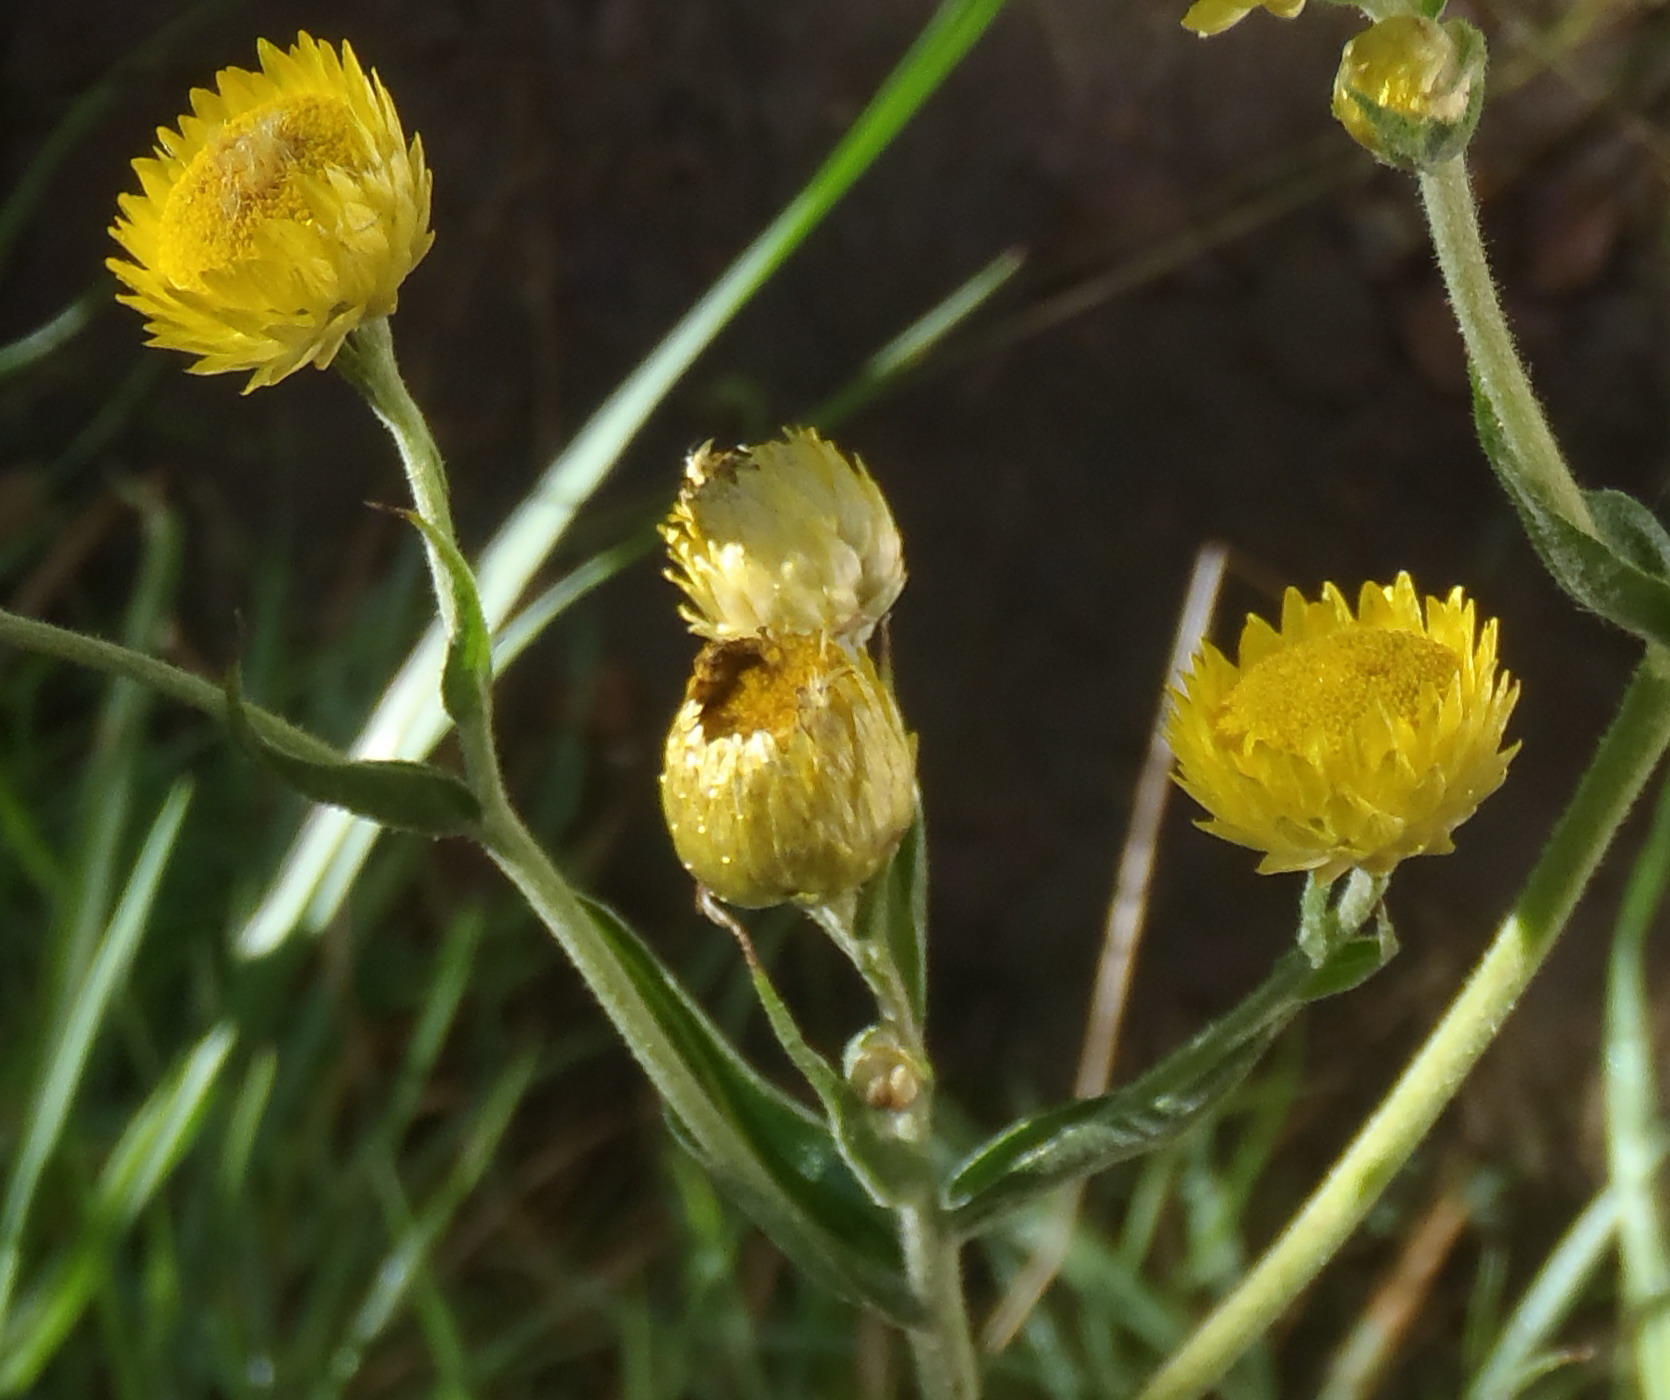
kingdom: Plantae
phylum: Tracheophyta
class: Magnoliopsida
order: Asterales
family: Asteraceae
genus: Helichrysum
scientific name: Helichrysum foetidum
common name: Stinking everlasting
